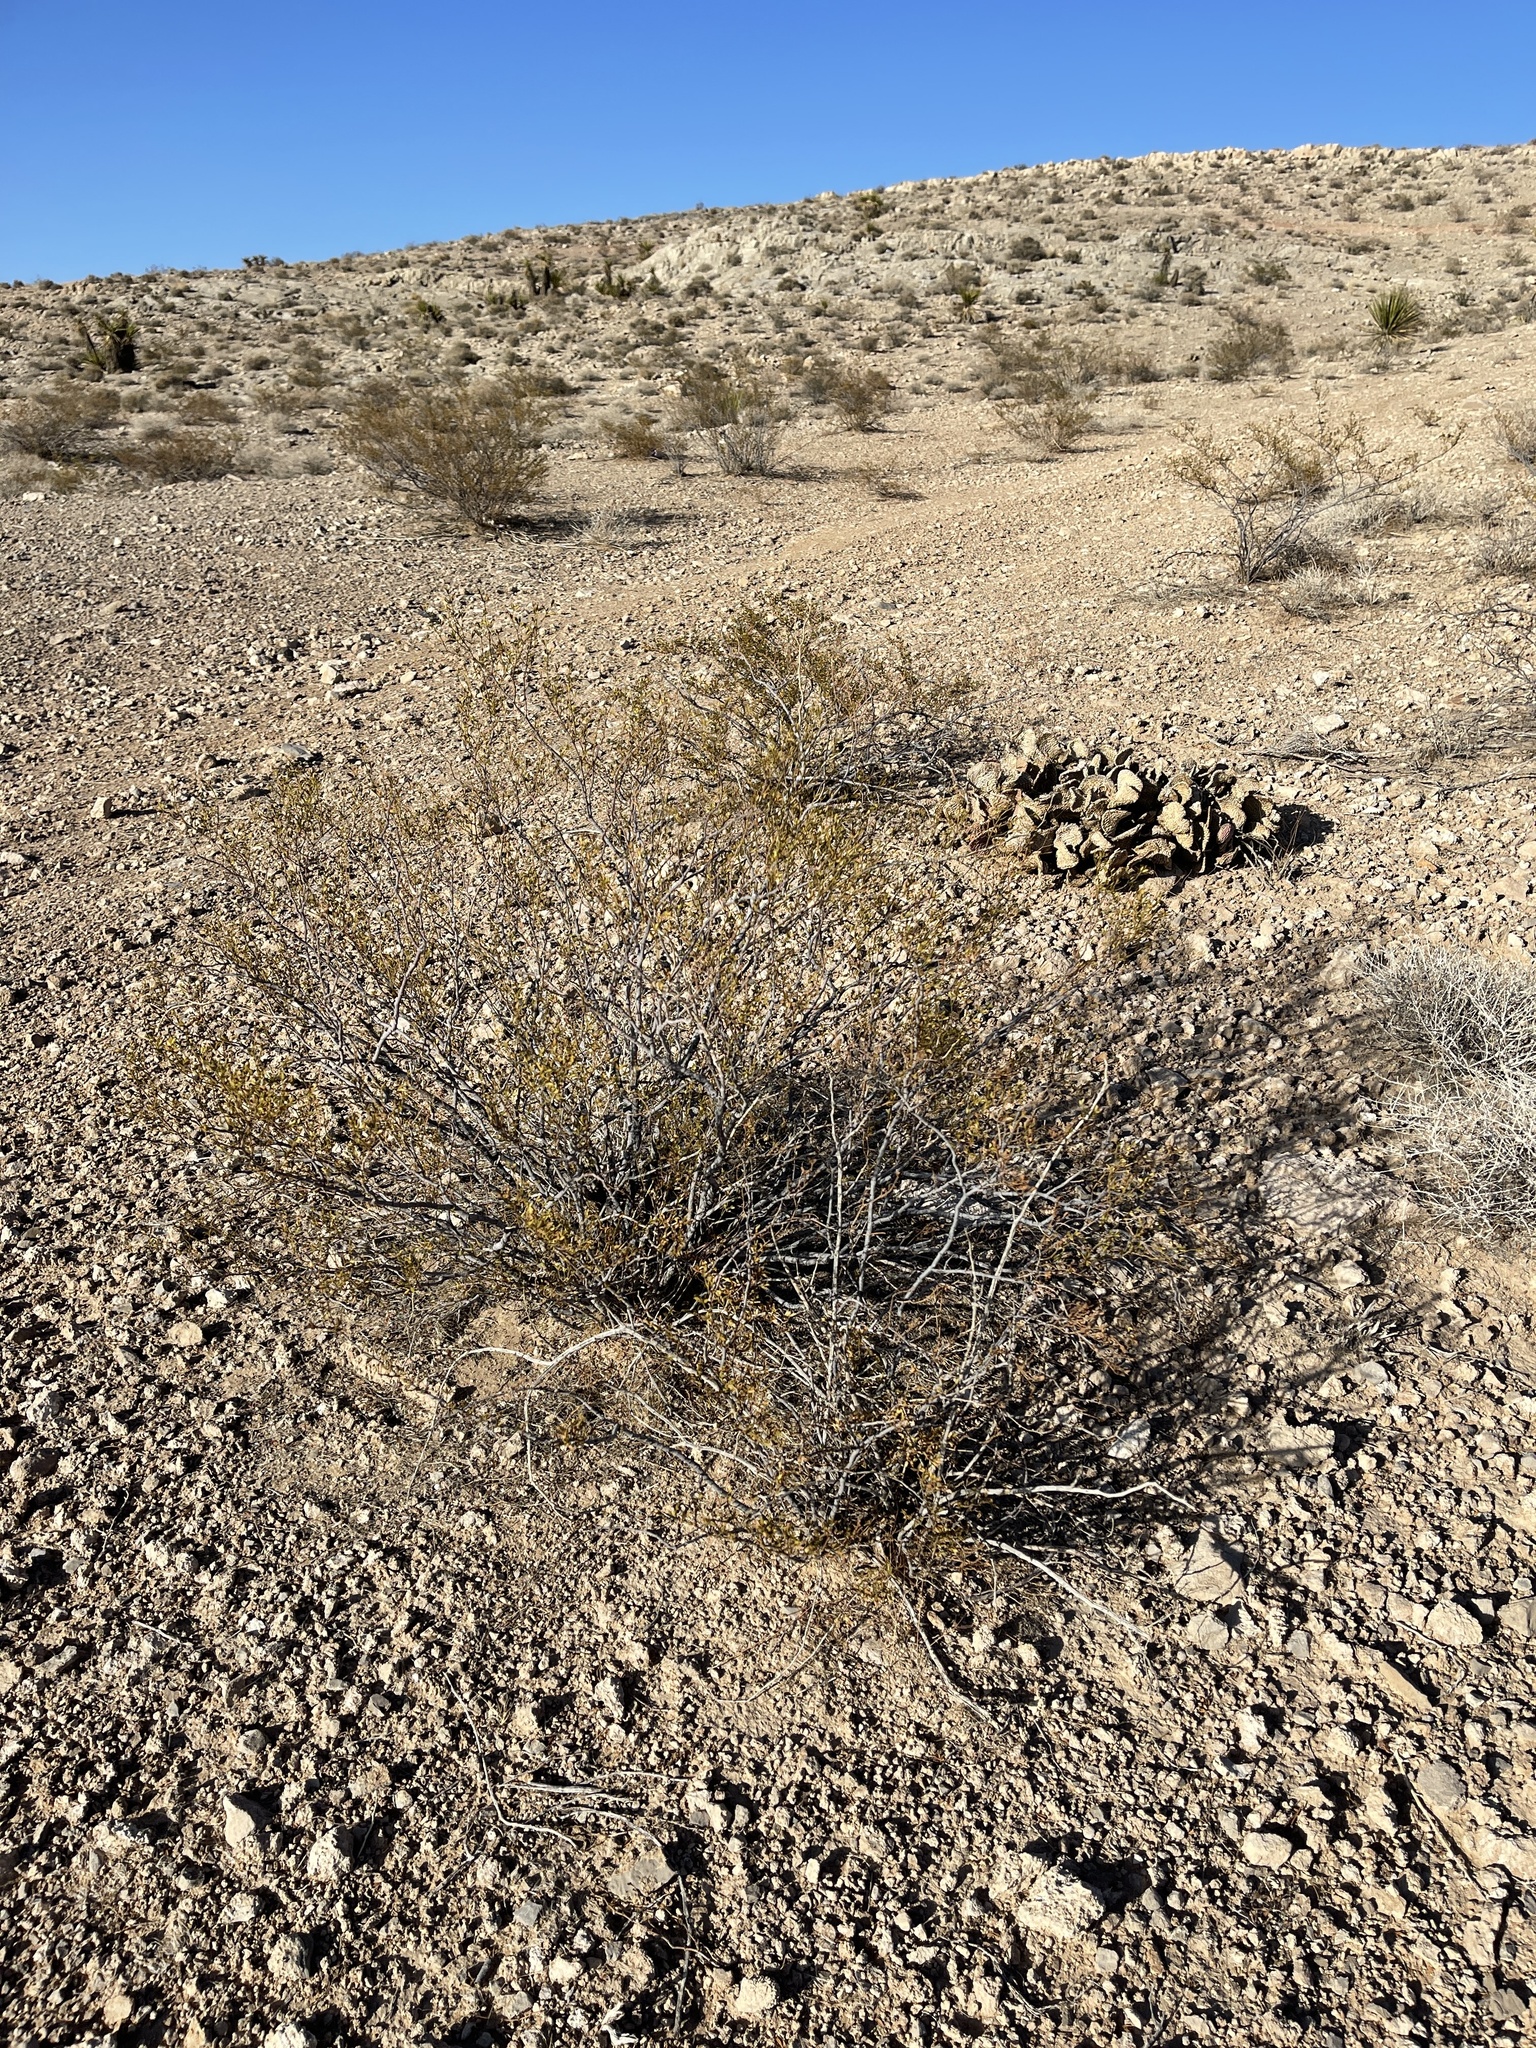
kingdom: Plantae
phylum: Tracheophyta
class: Magnoliopsida
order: Zygophyllales
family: Zygophyllaceae
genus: Larrea
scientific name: Larrea tridentata
